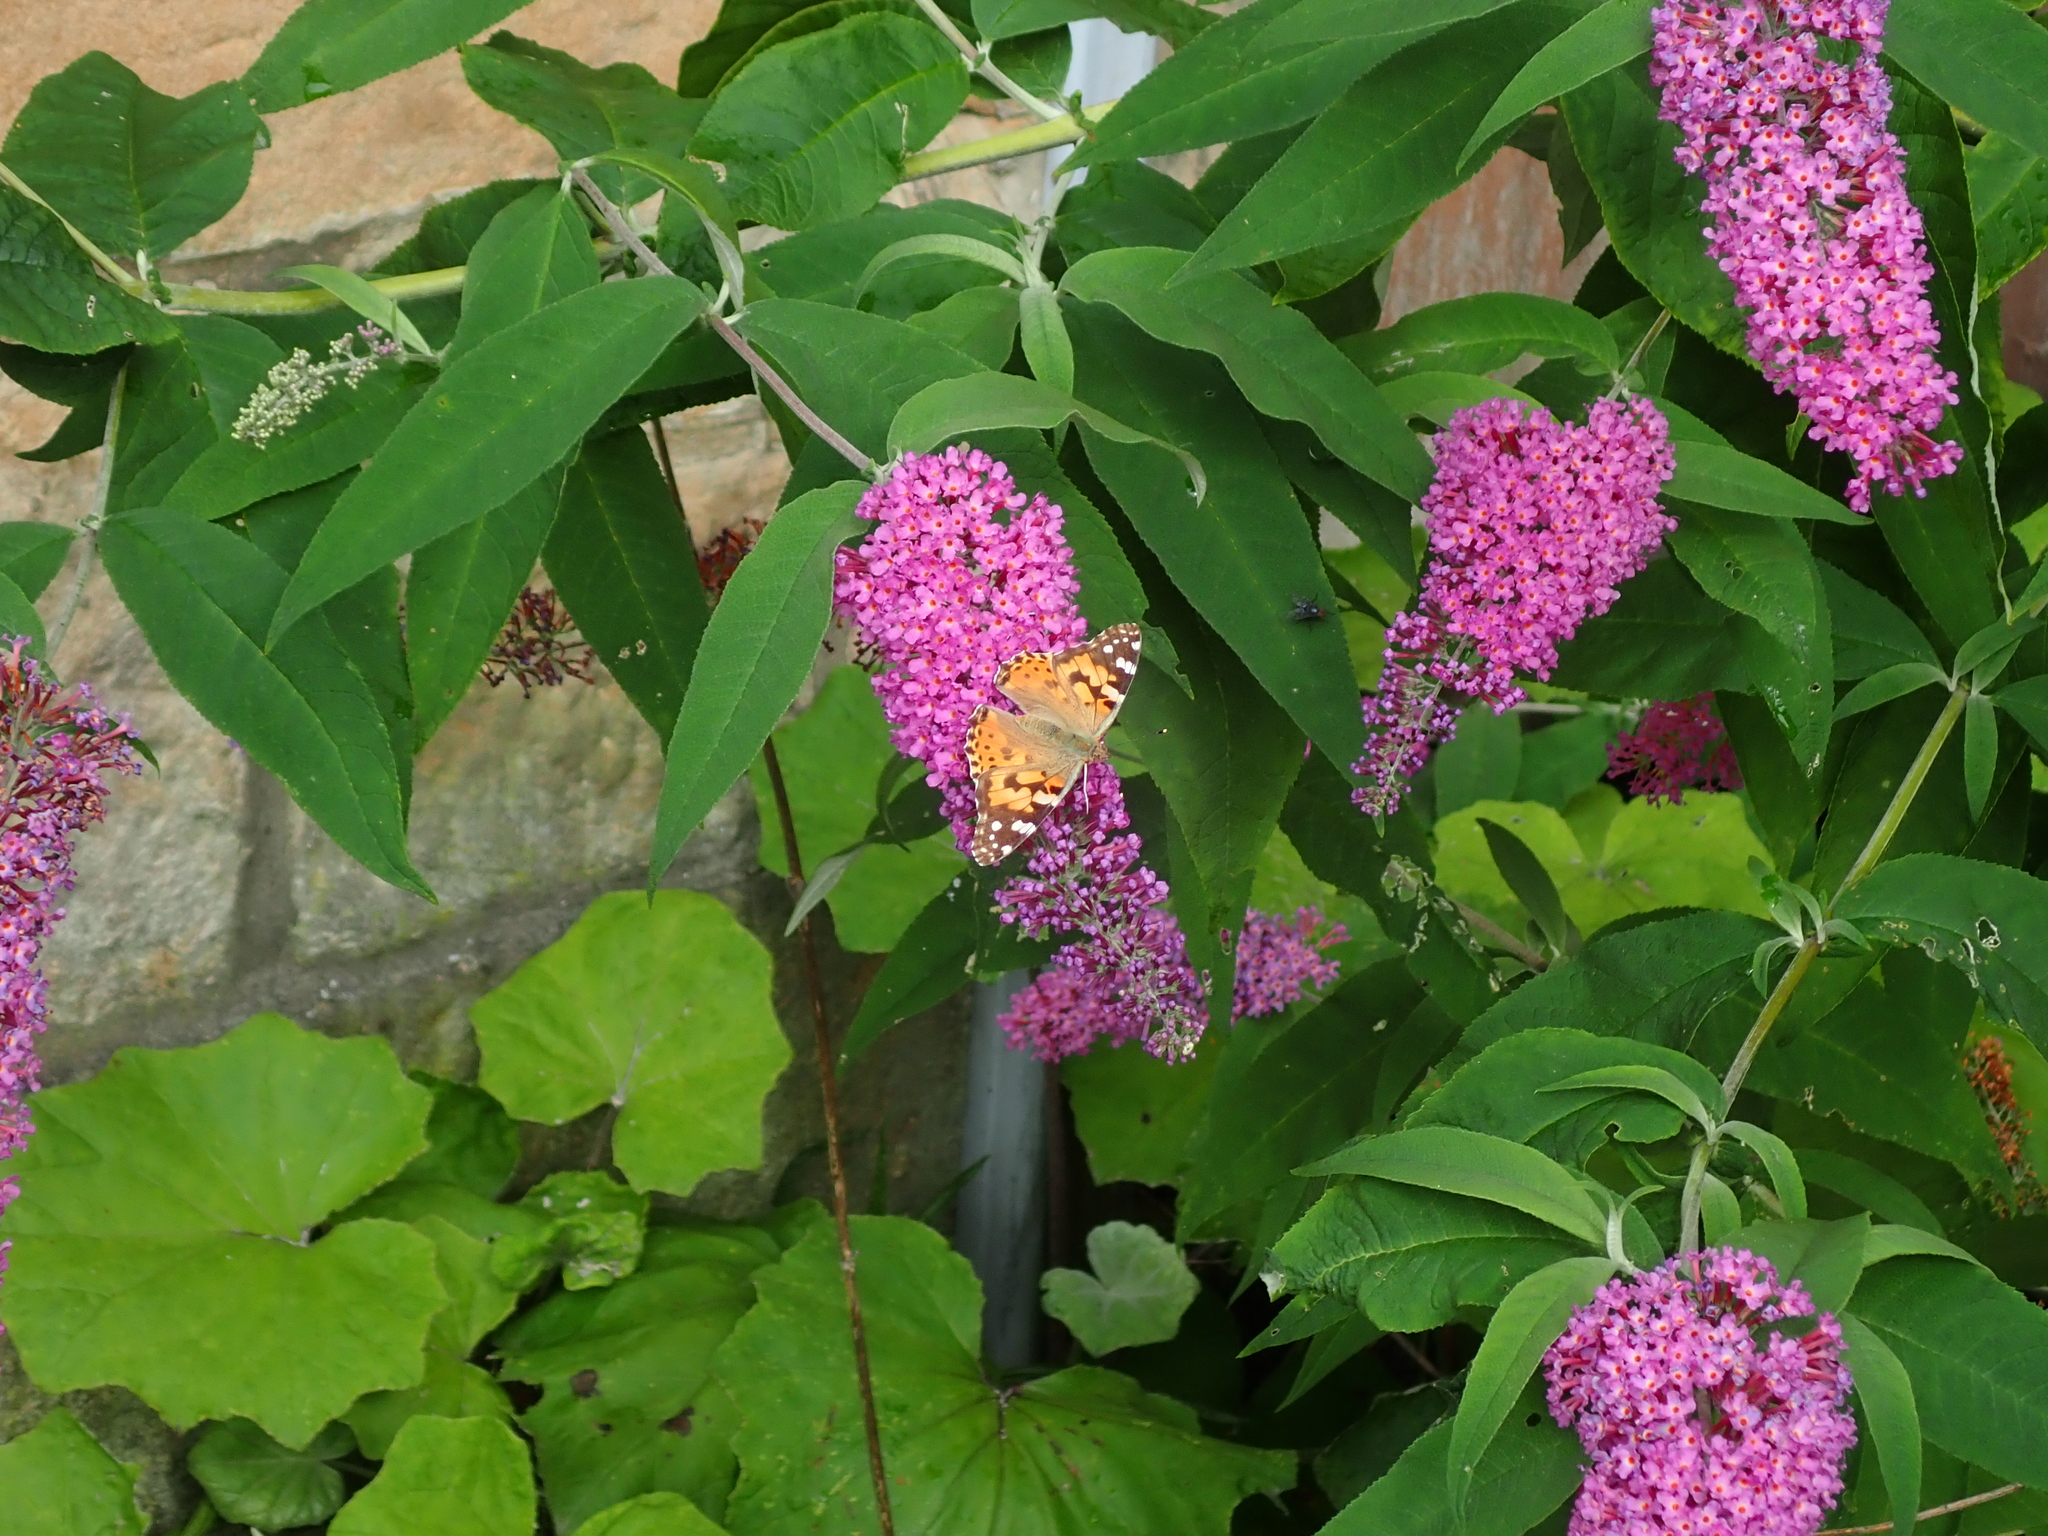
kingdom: Animalia
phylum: Arthropoda
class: Insecta
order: Lepidoptera
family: Nymphalidae
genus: Vanessa
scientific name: Vanessa cardui
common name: Painted lady
